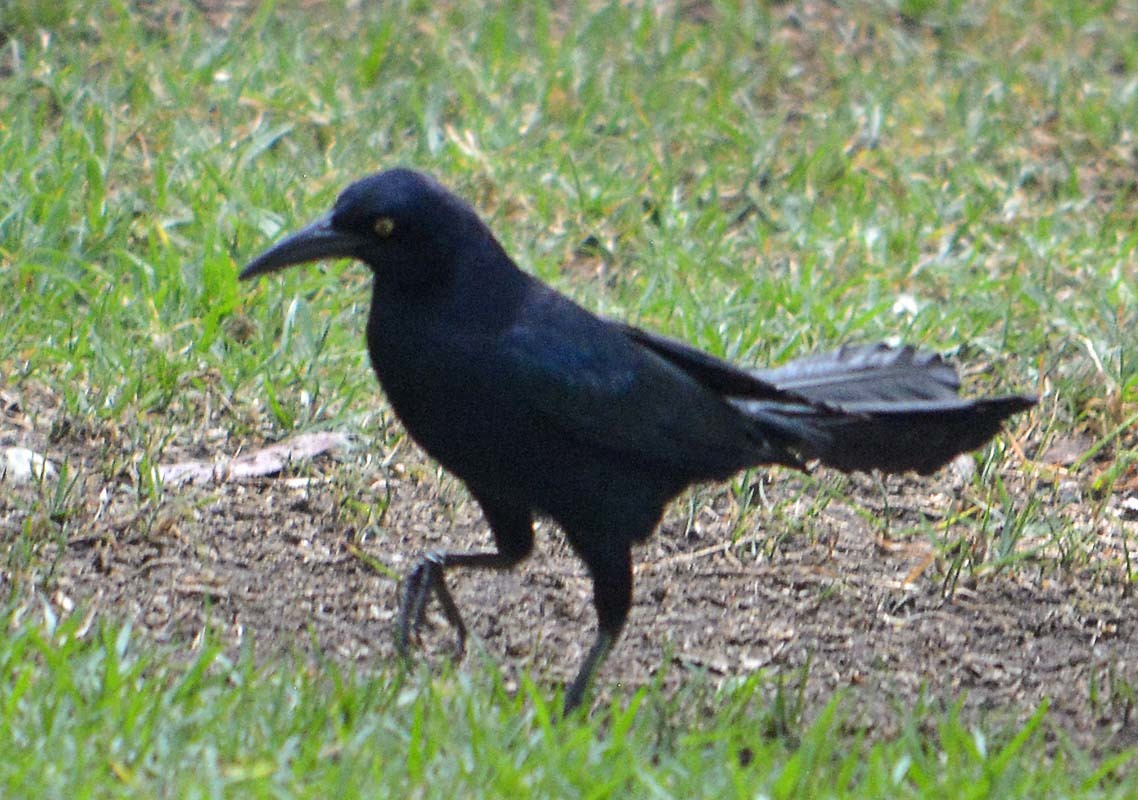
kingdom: Animalia
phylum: Chordata
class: Aves
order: Passeriformes
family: Icteridae
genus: Quiscalus
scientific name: Quiscalus mexicanus
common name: Great-tailed grackle
